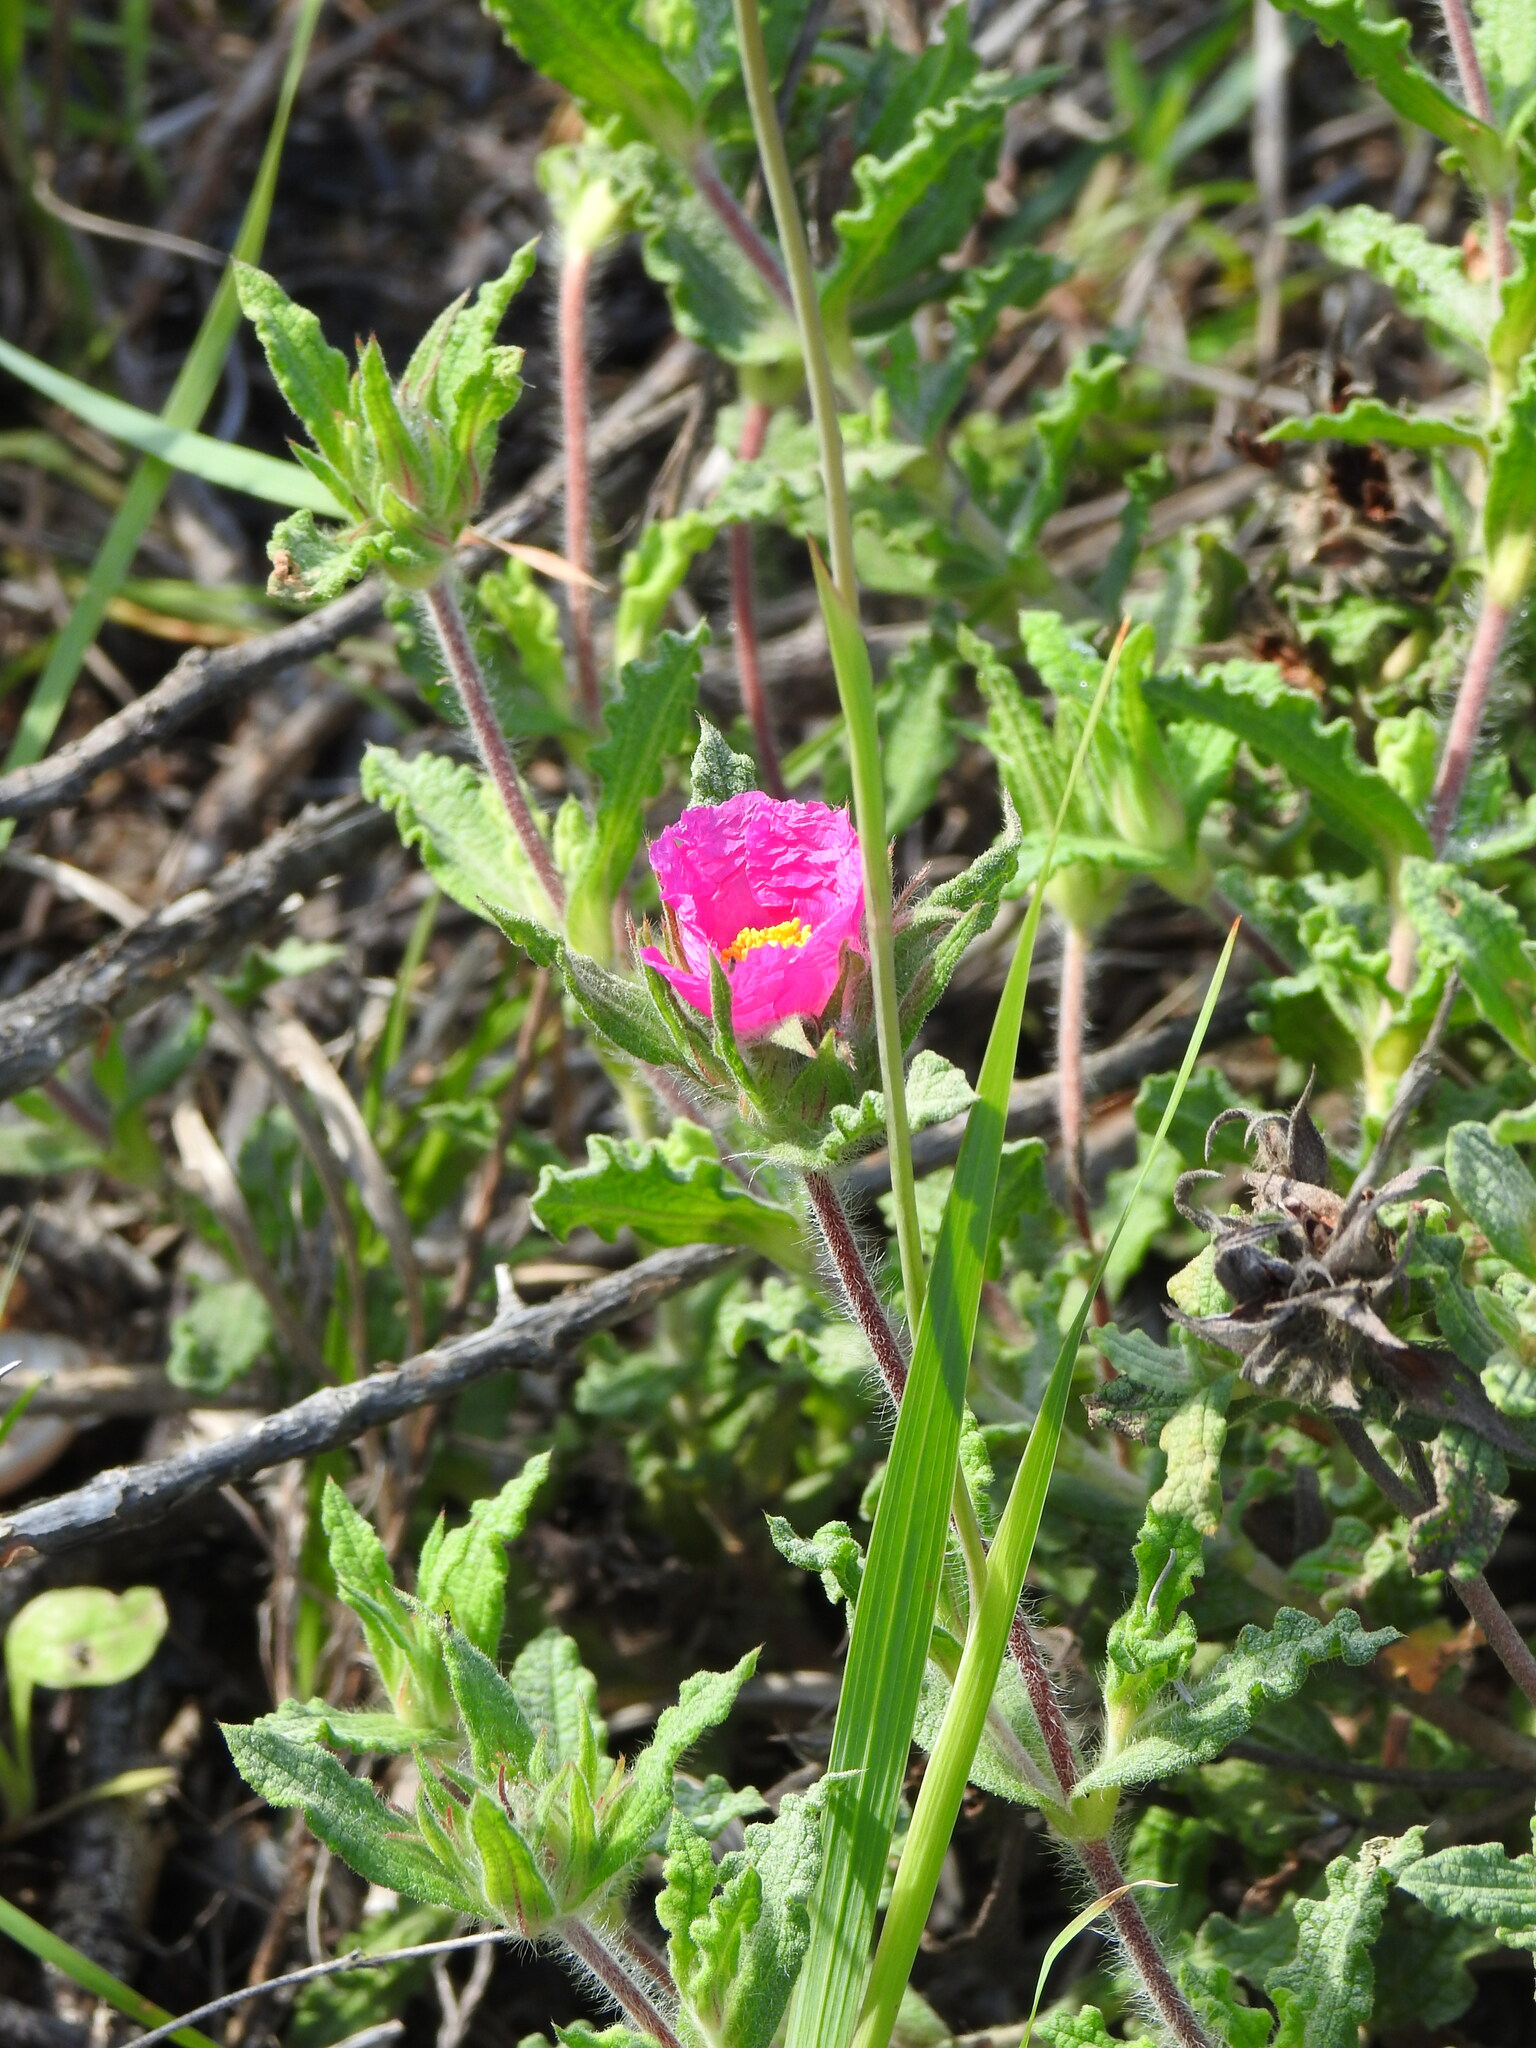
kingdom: Plantae
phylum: Tracheophyta
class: Magnoliopsida
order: Malvales
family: Cistaceae
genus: Cistus
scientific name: Cistus crispus
